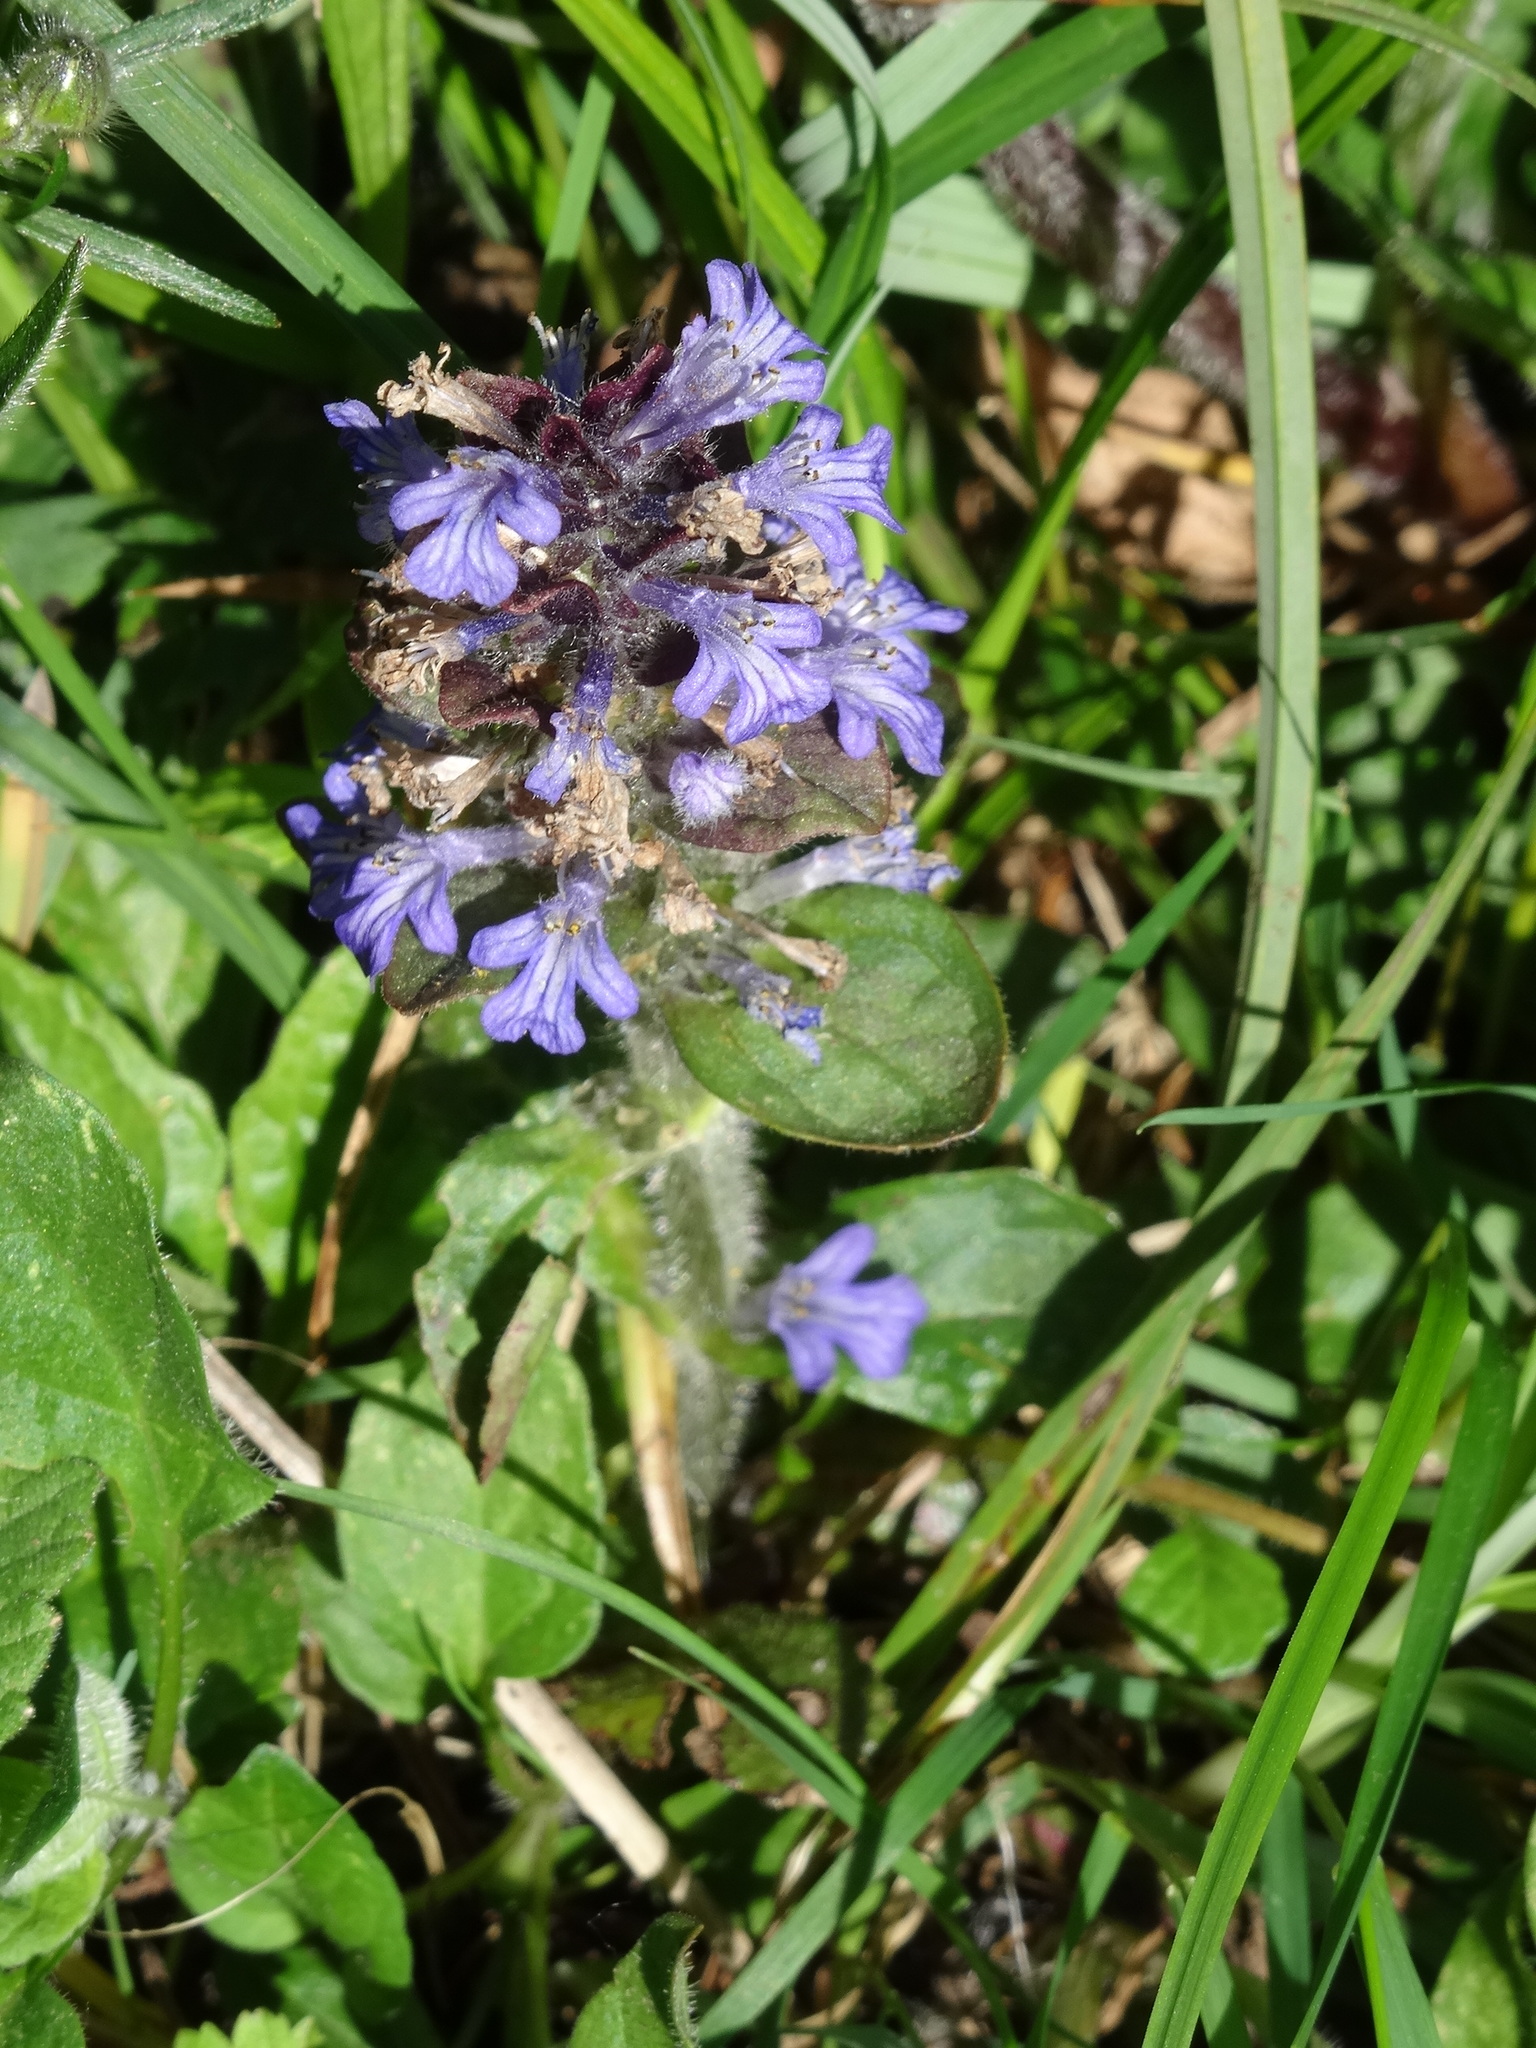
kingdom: Plantae
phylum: Tracheophyta
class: Magnoliopsida
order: Lamiales
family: Lamiaceae
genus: Ajuga
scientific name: Ajuga reptans
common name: Bugle
